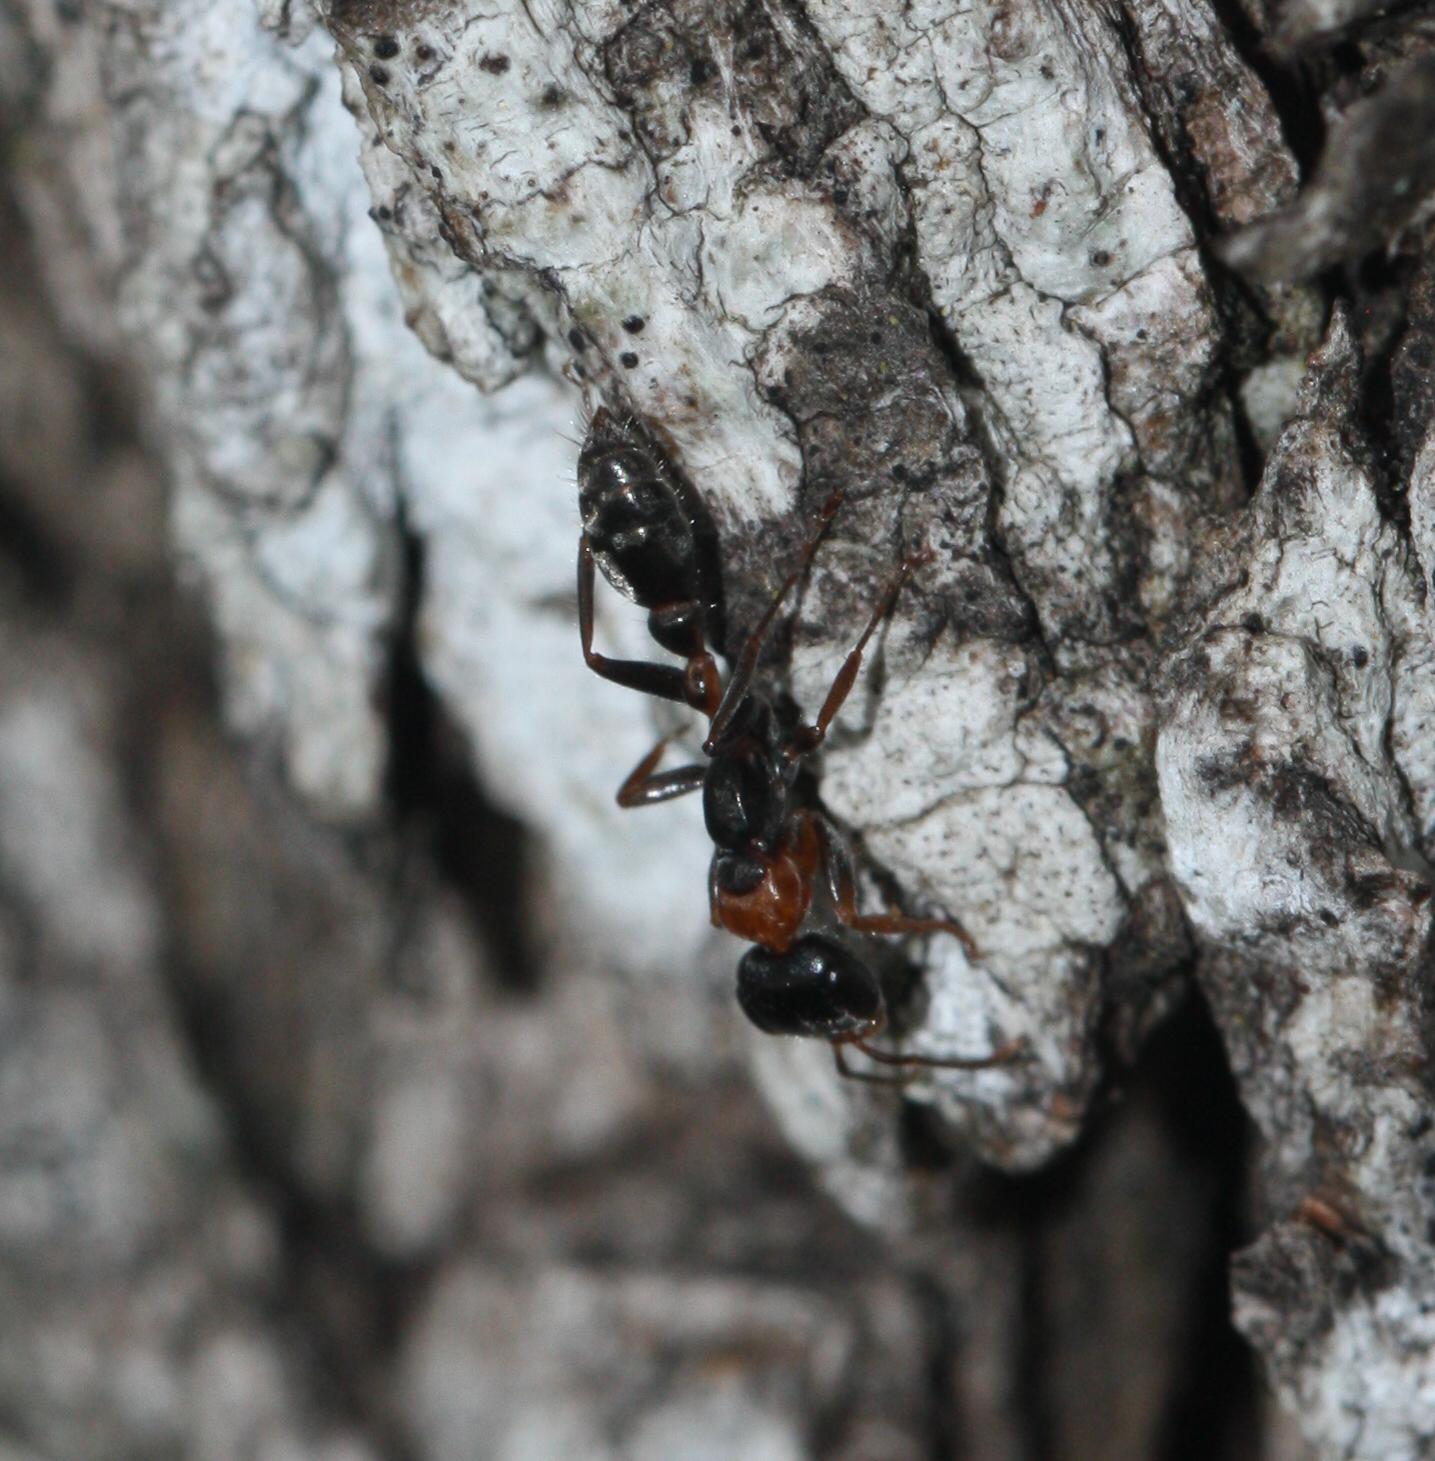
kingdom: Animalia
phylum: Arthropoda
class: Insecta
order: Hymenoptera
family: Formicidae
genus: Pseudomyrmex
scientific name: Pseudomyrmex gracilis
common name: Graceful twig ant
